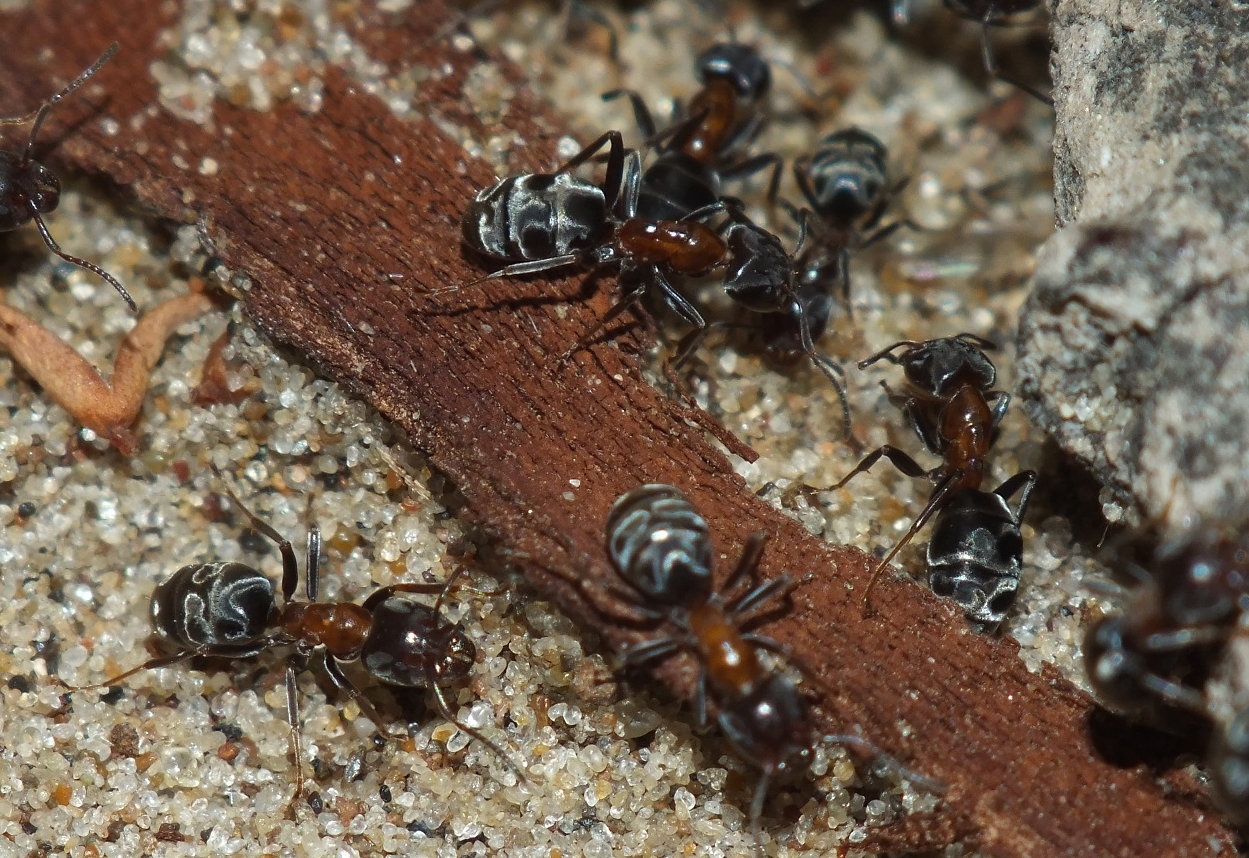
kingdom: Animalia
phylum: Arthropoda
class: Insecta
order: Hymenoptera
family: Formicidae
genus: Liometopum
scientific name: Liometopum microcephalum
